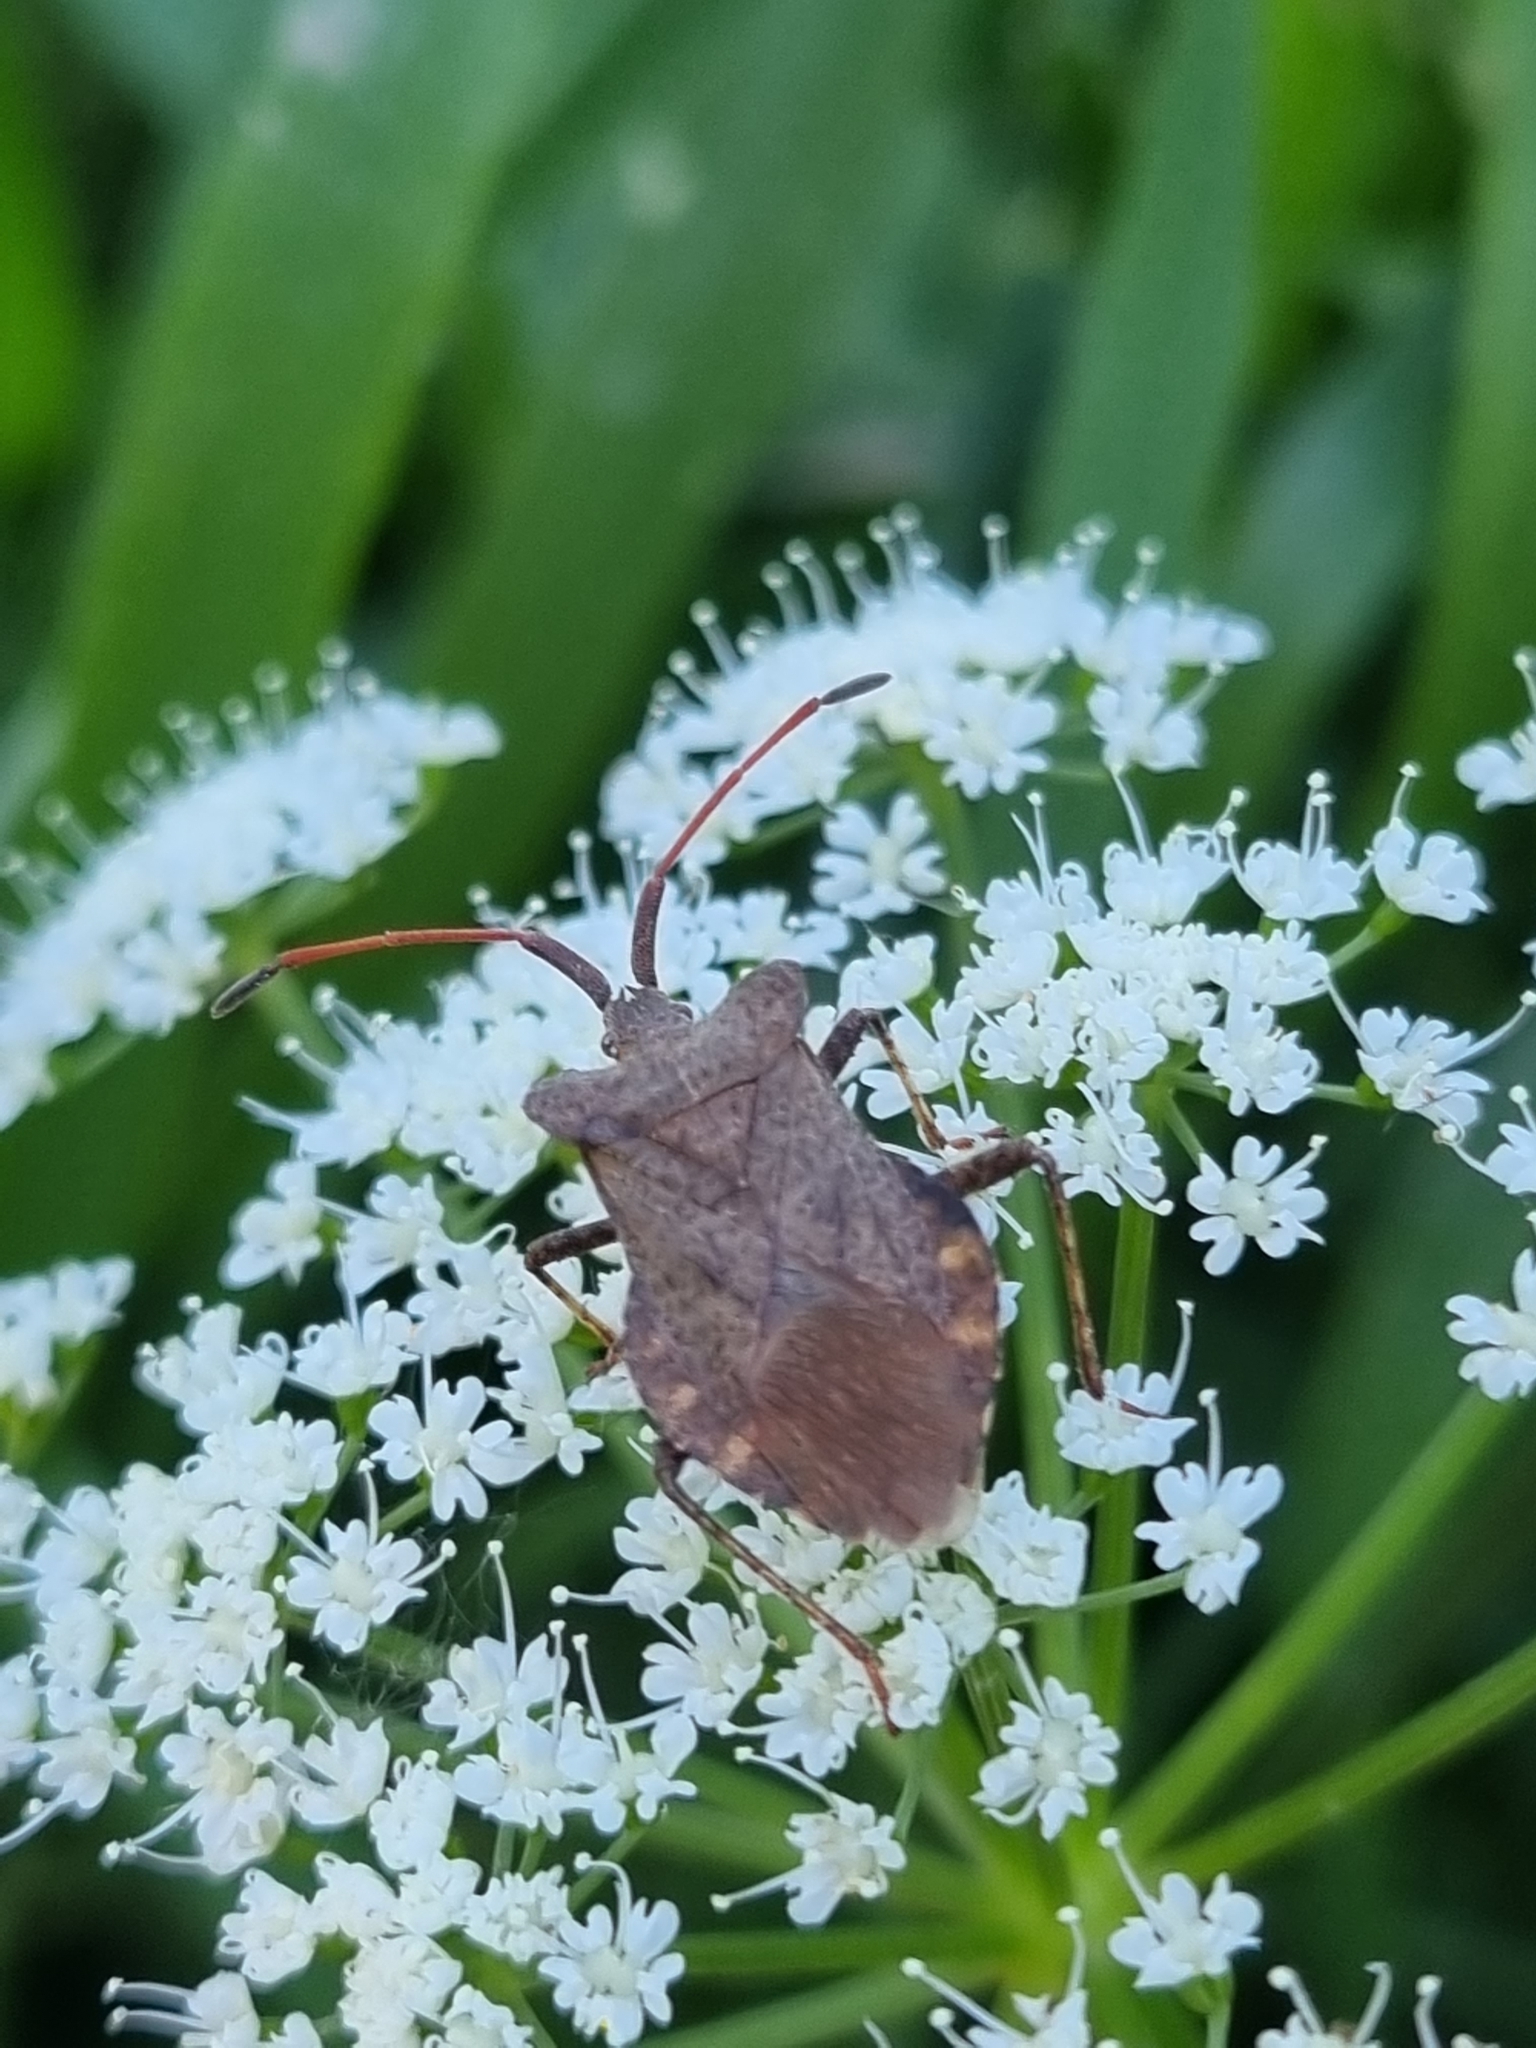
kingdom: Animalia
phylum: Arthropoda
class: Insecta
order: Hemiptera
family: Coreidae
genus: Coreus
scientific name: Coreus marginatus
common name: Dock bug
